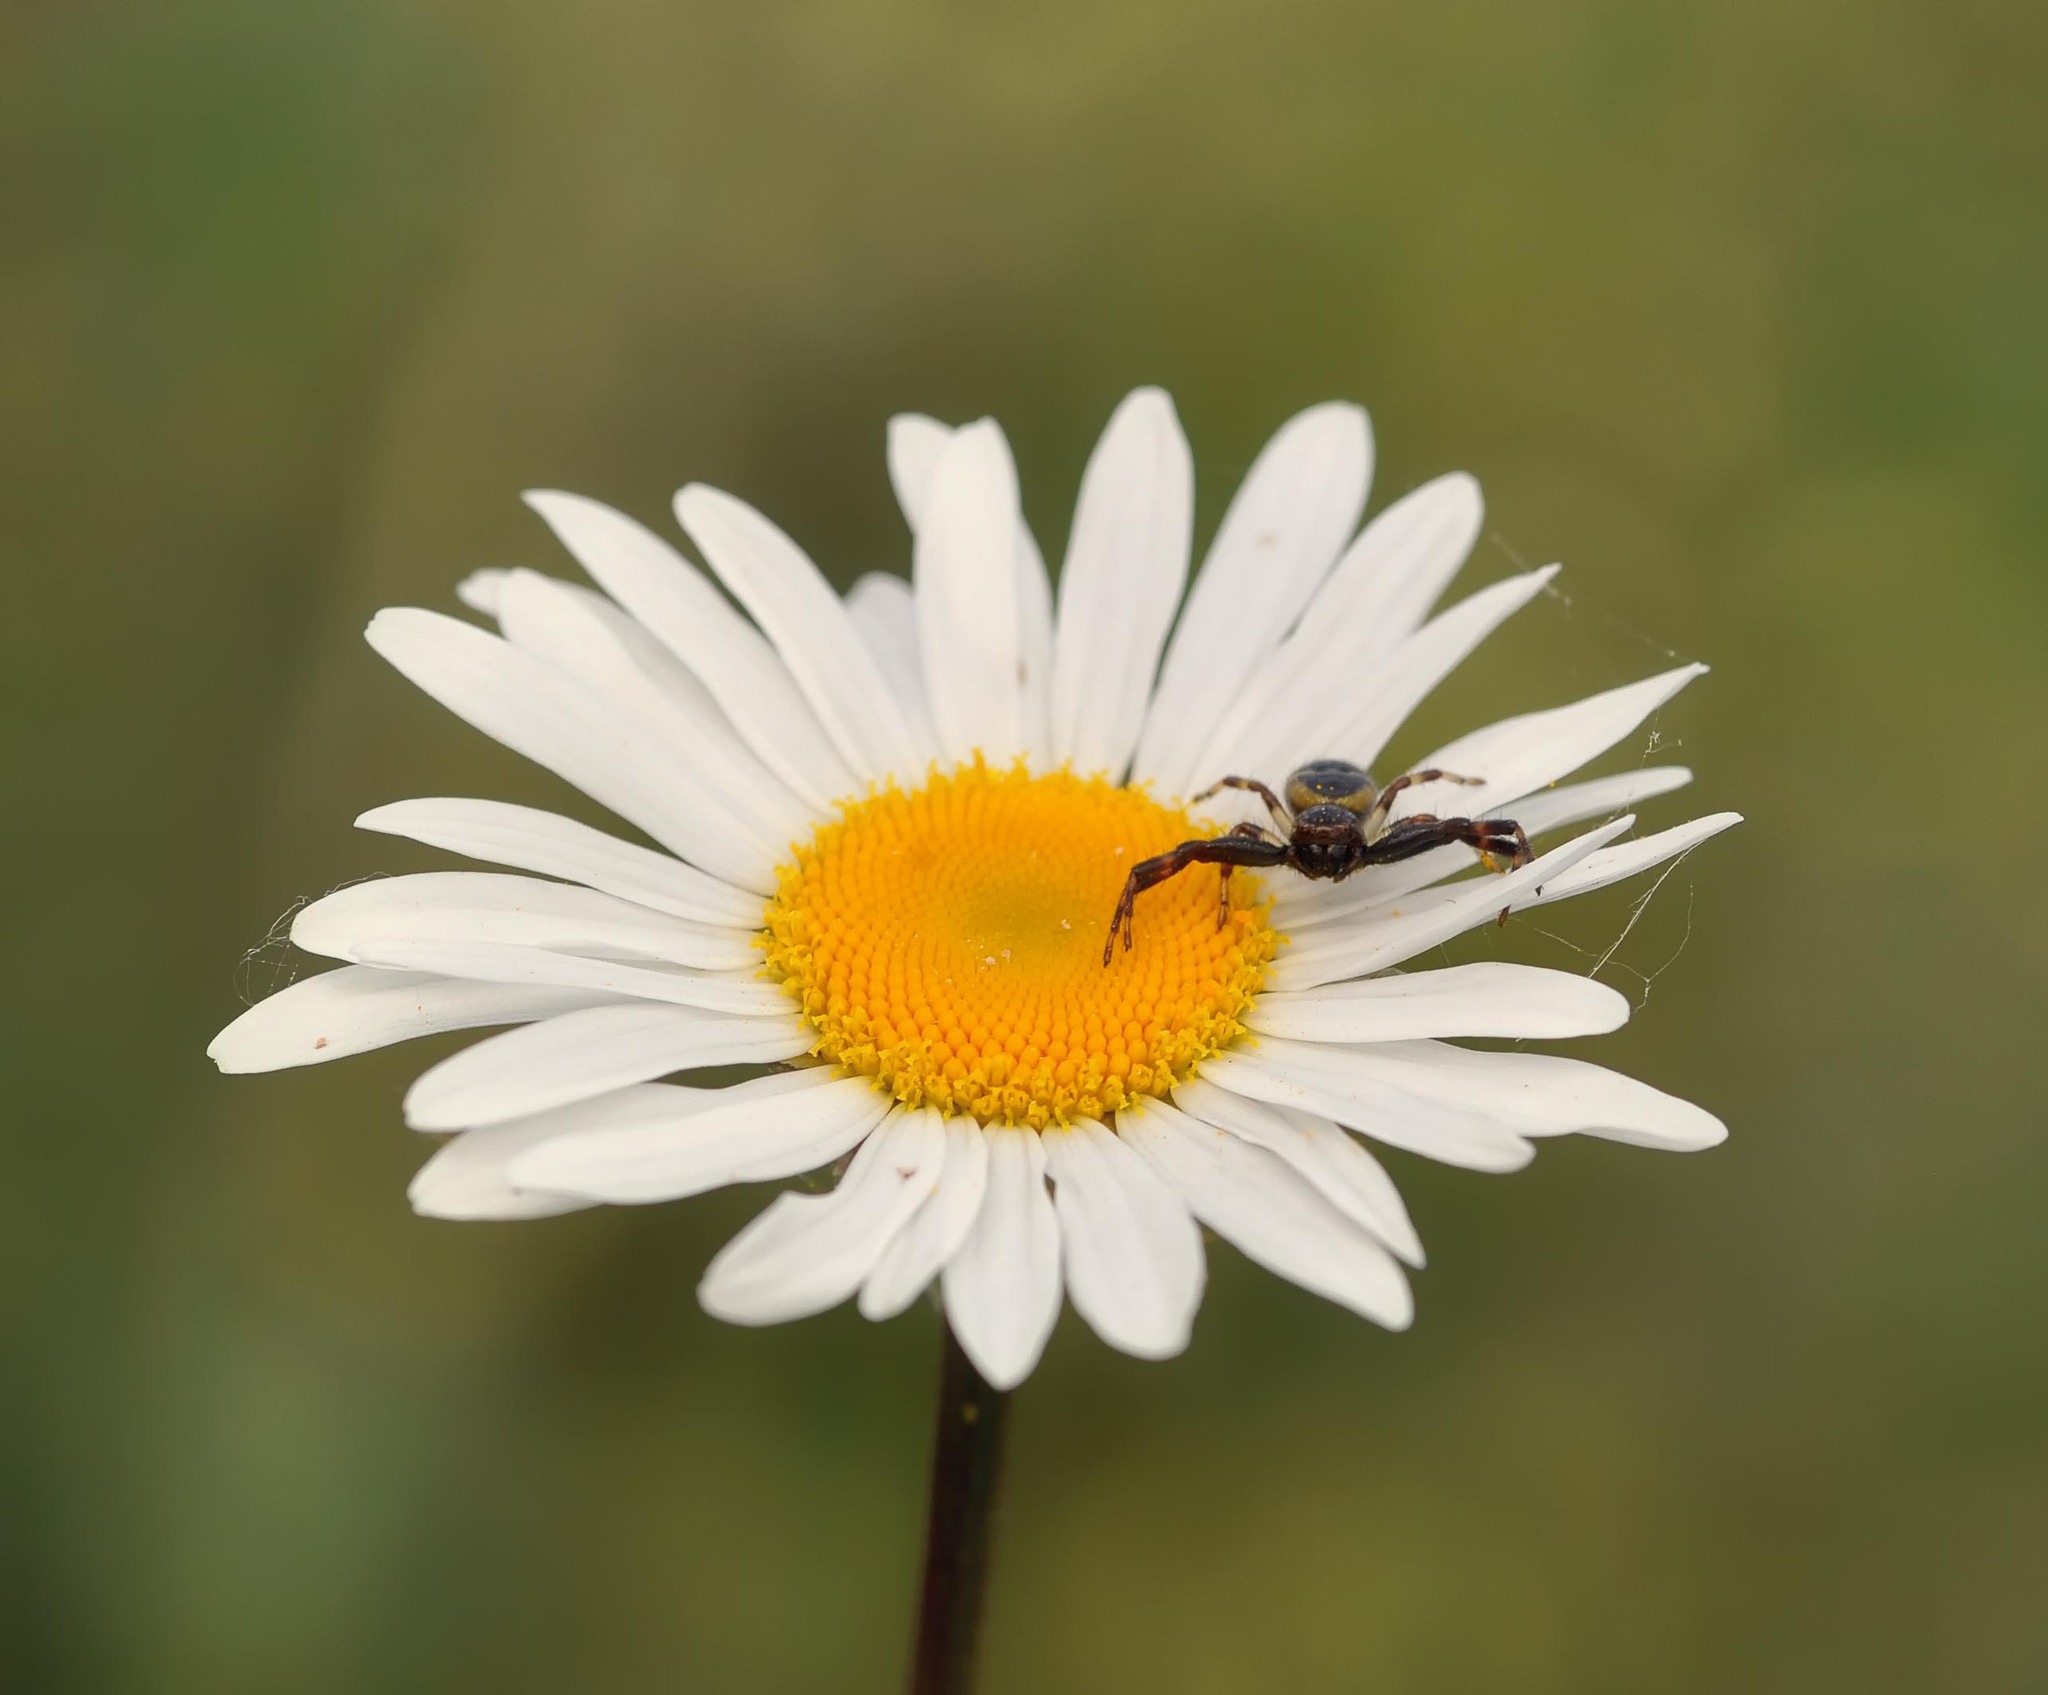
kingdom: Animalia
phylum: Arthropoda
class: Arachnida
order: Araneae
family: Thomisidae
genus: Synema
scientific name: Synema globosum
